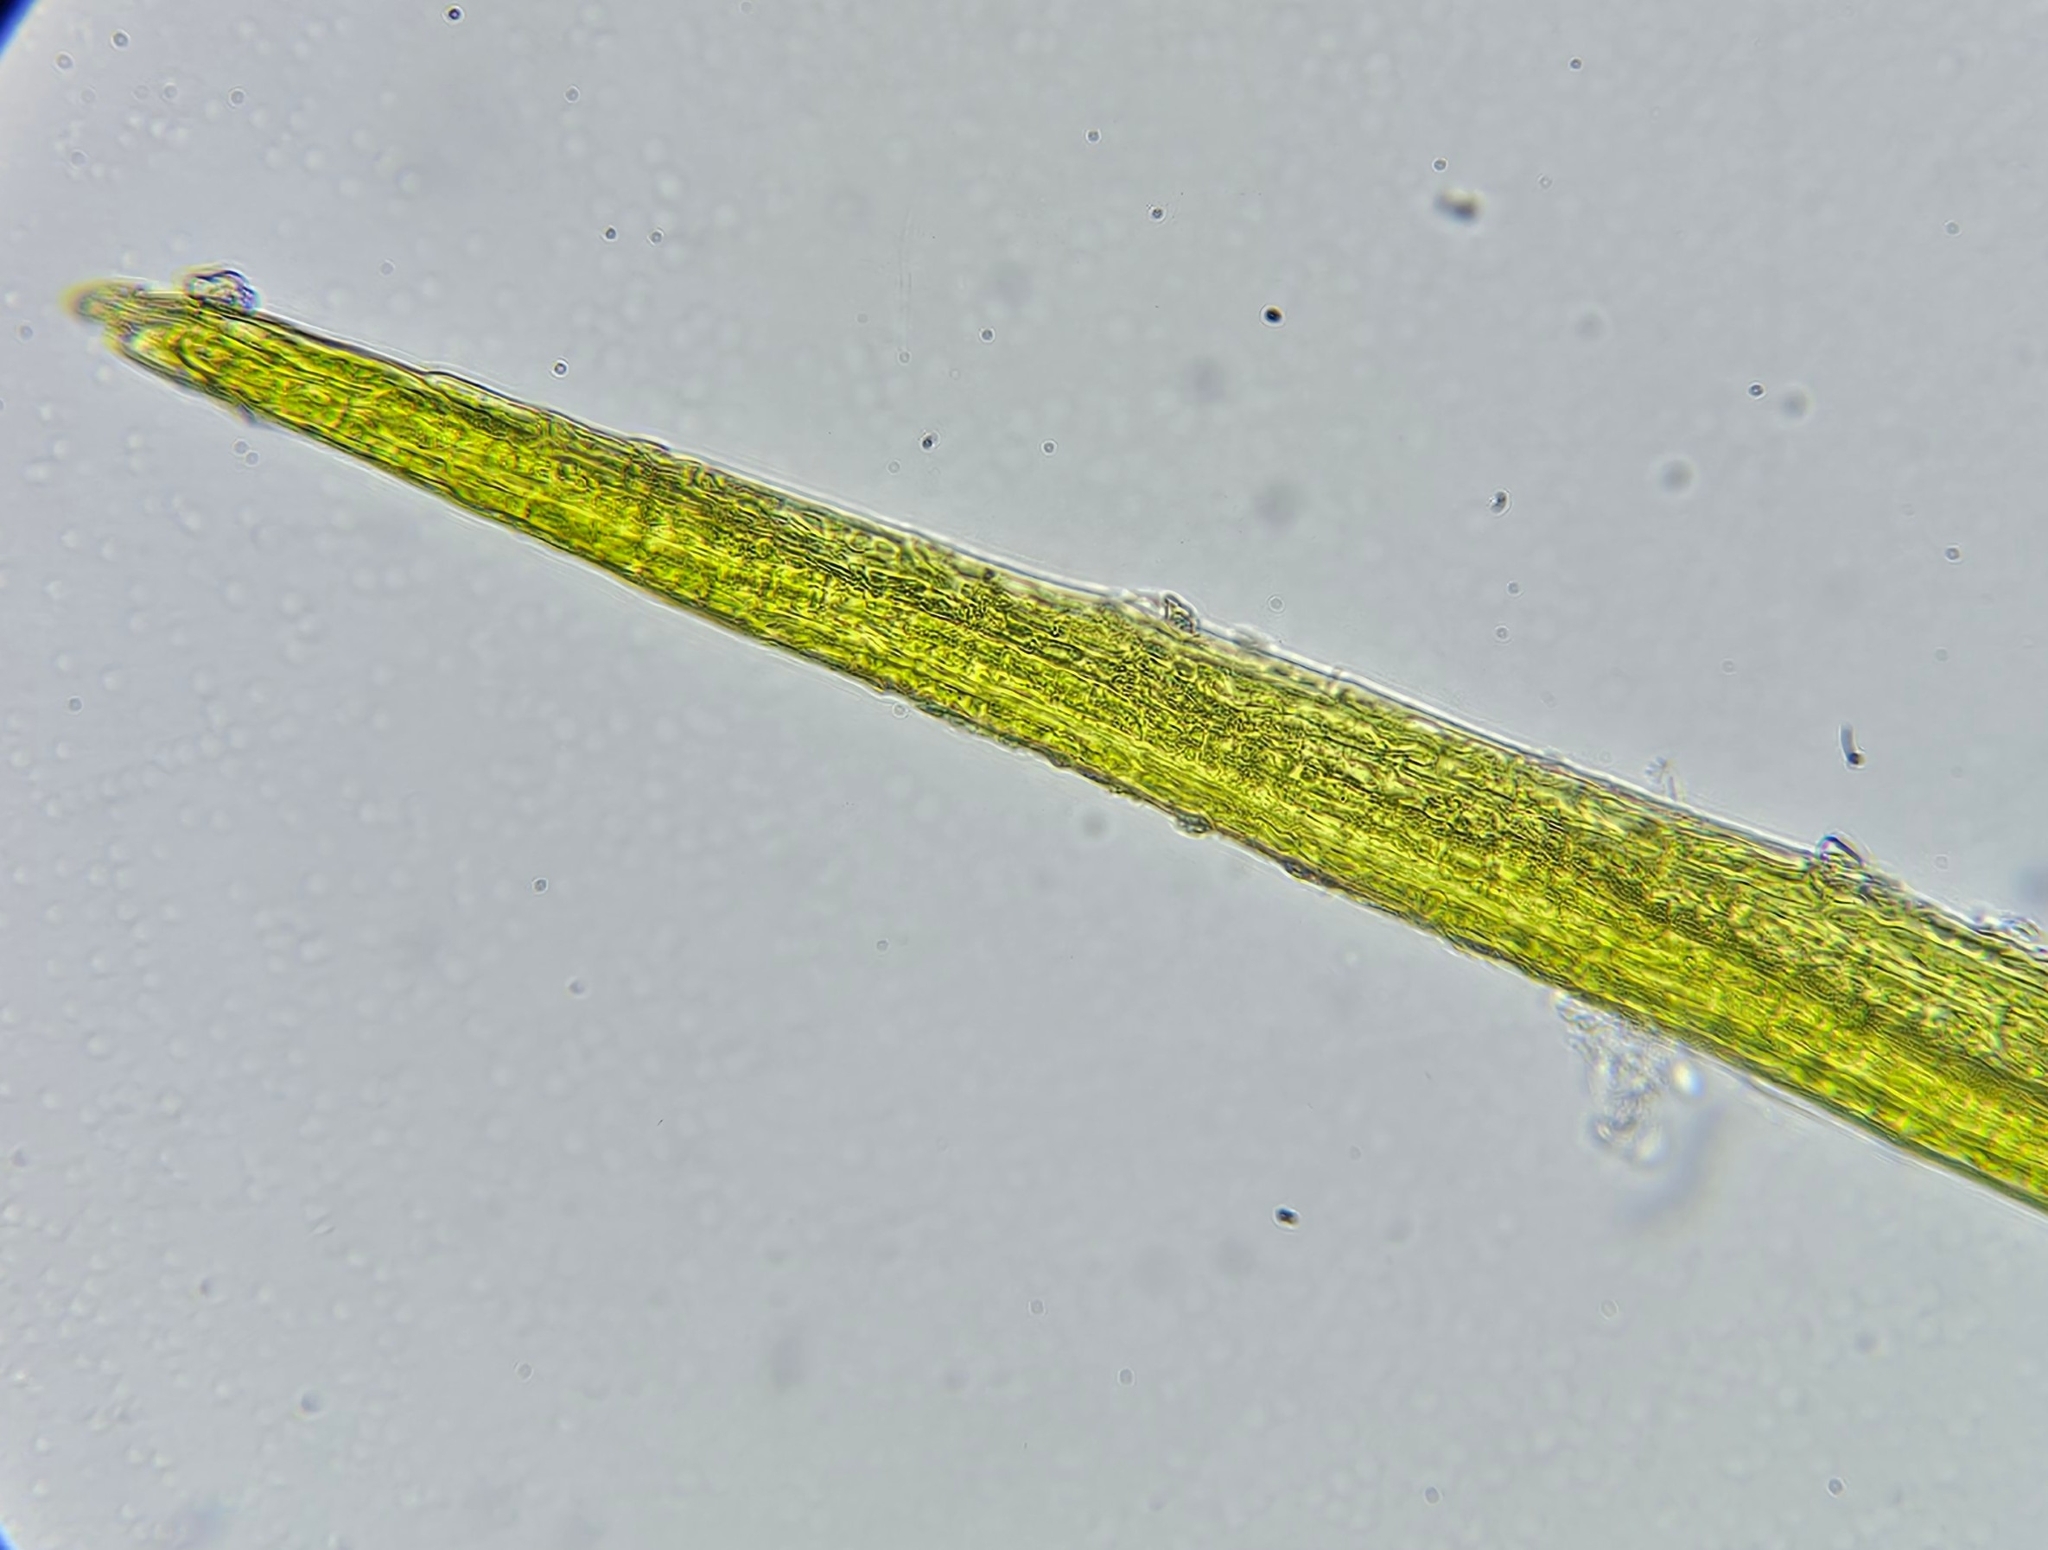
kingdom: Plantae
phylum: Bryophyta
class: Bryopsida
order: Dicranales
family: Dicranellaceae
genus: Dicranella
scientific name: Dicranella rufescens
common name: Red forklet moss
